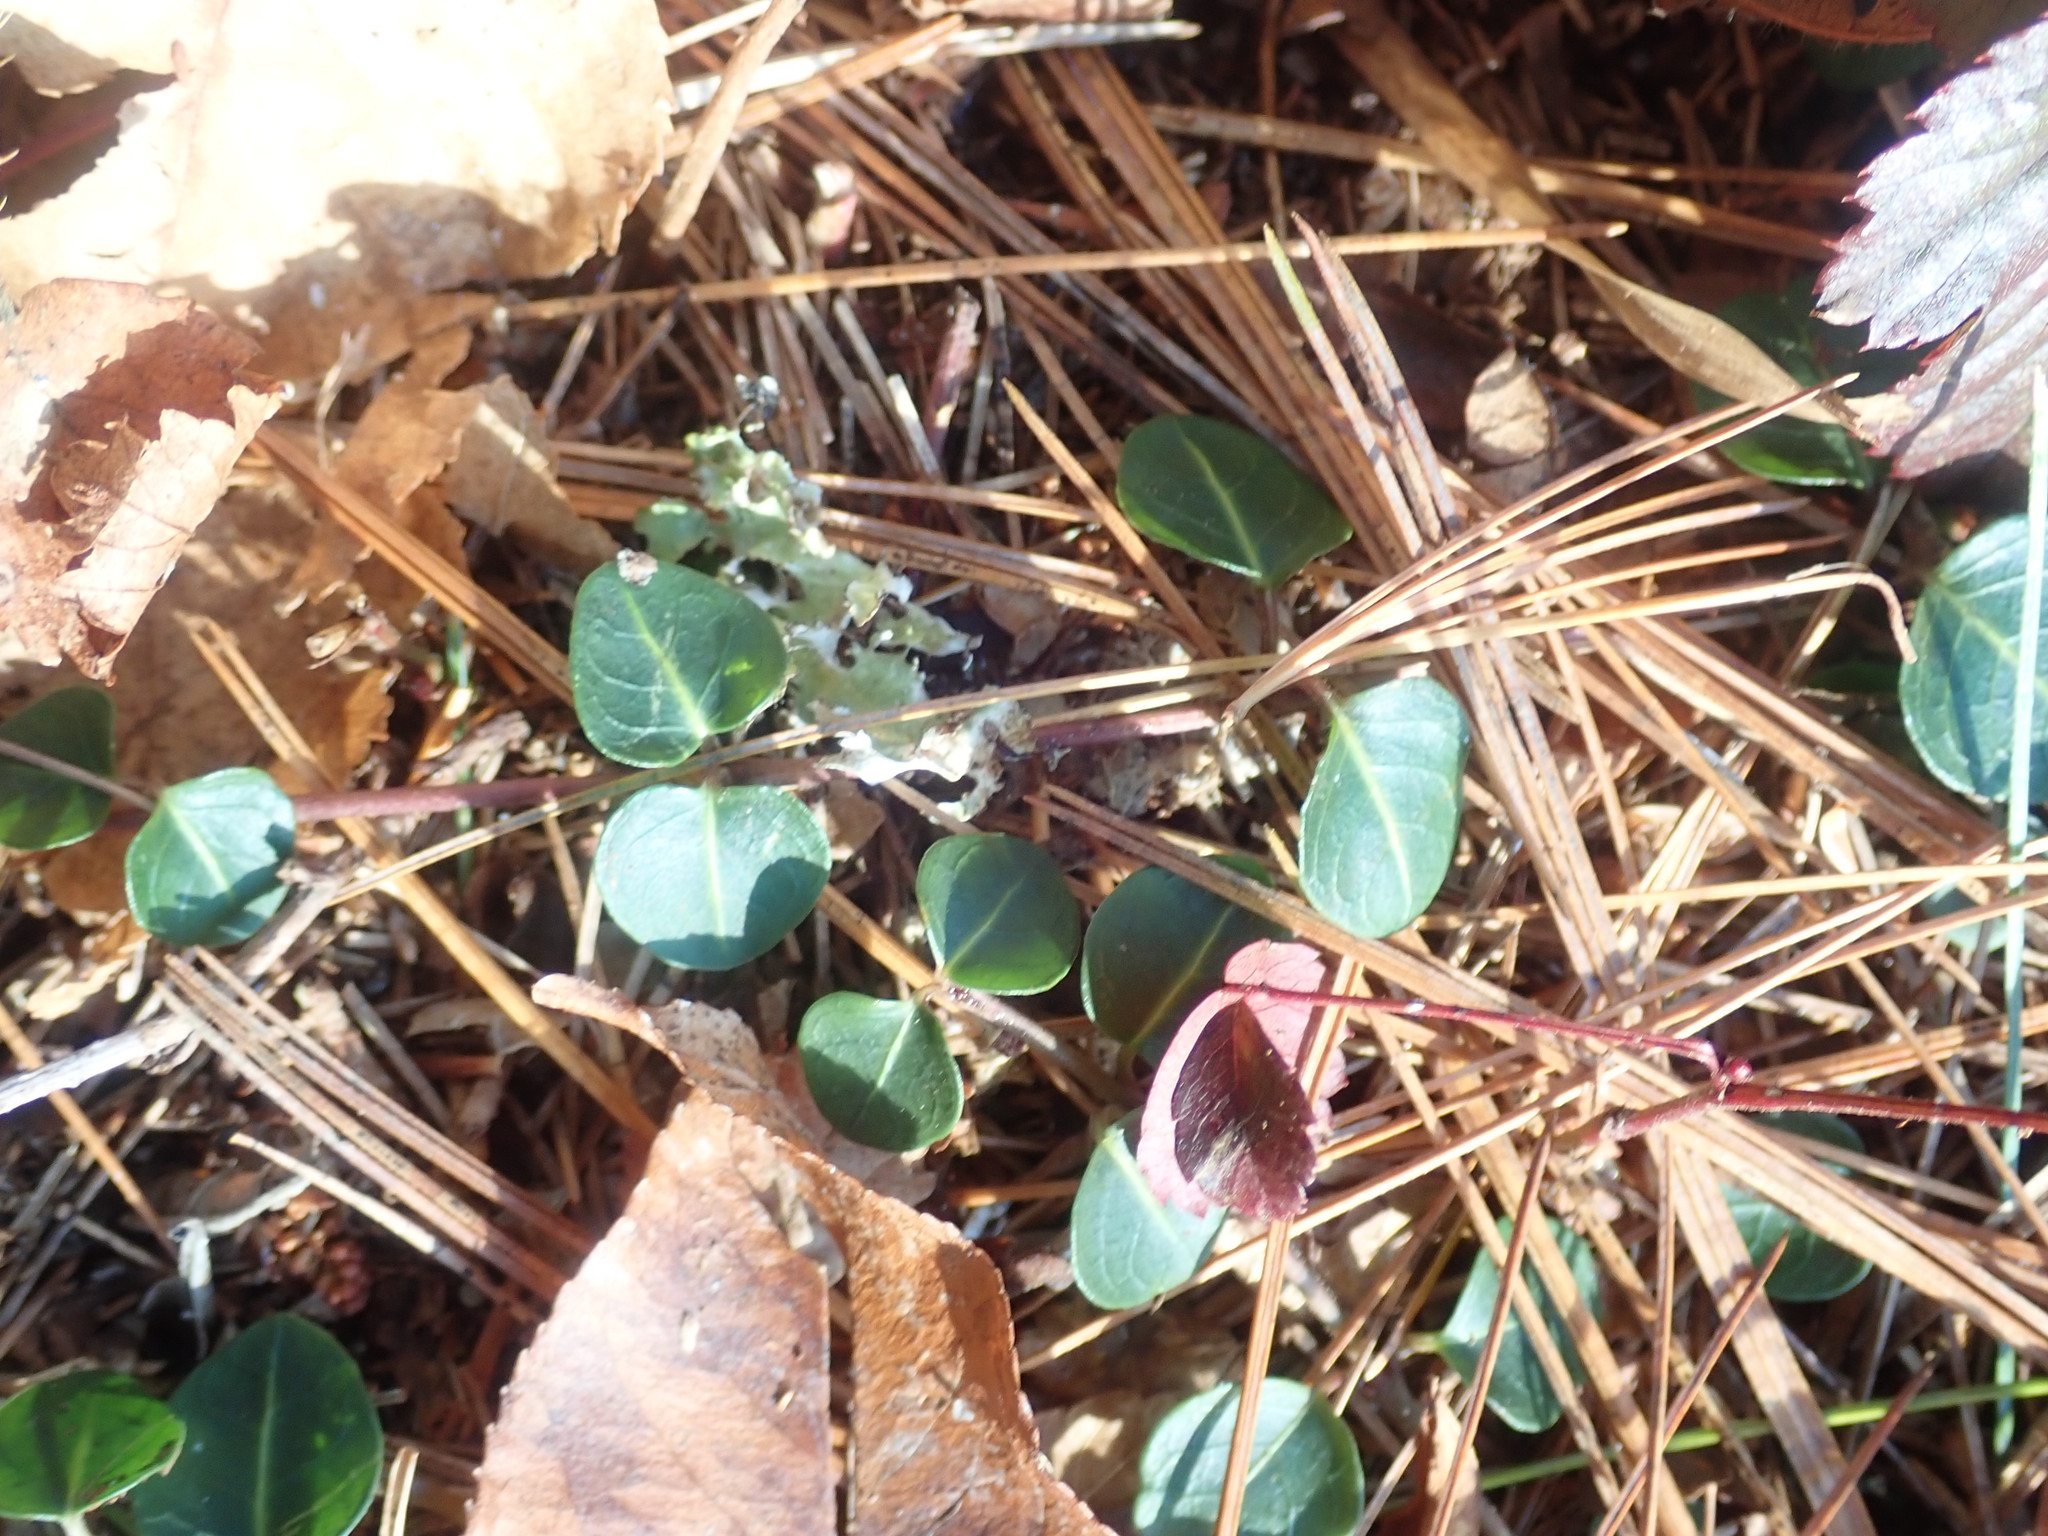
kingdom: Plantae
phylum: Tracheophyta
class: Magnoliopsida
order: Gentianales
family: Rubiaceae
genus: Mitchella
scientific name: Mitchella repens
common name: Partridge-berry
